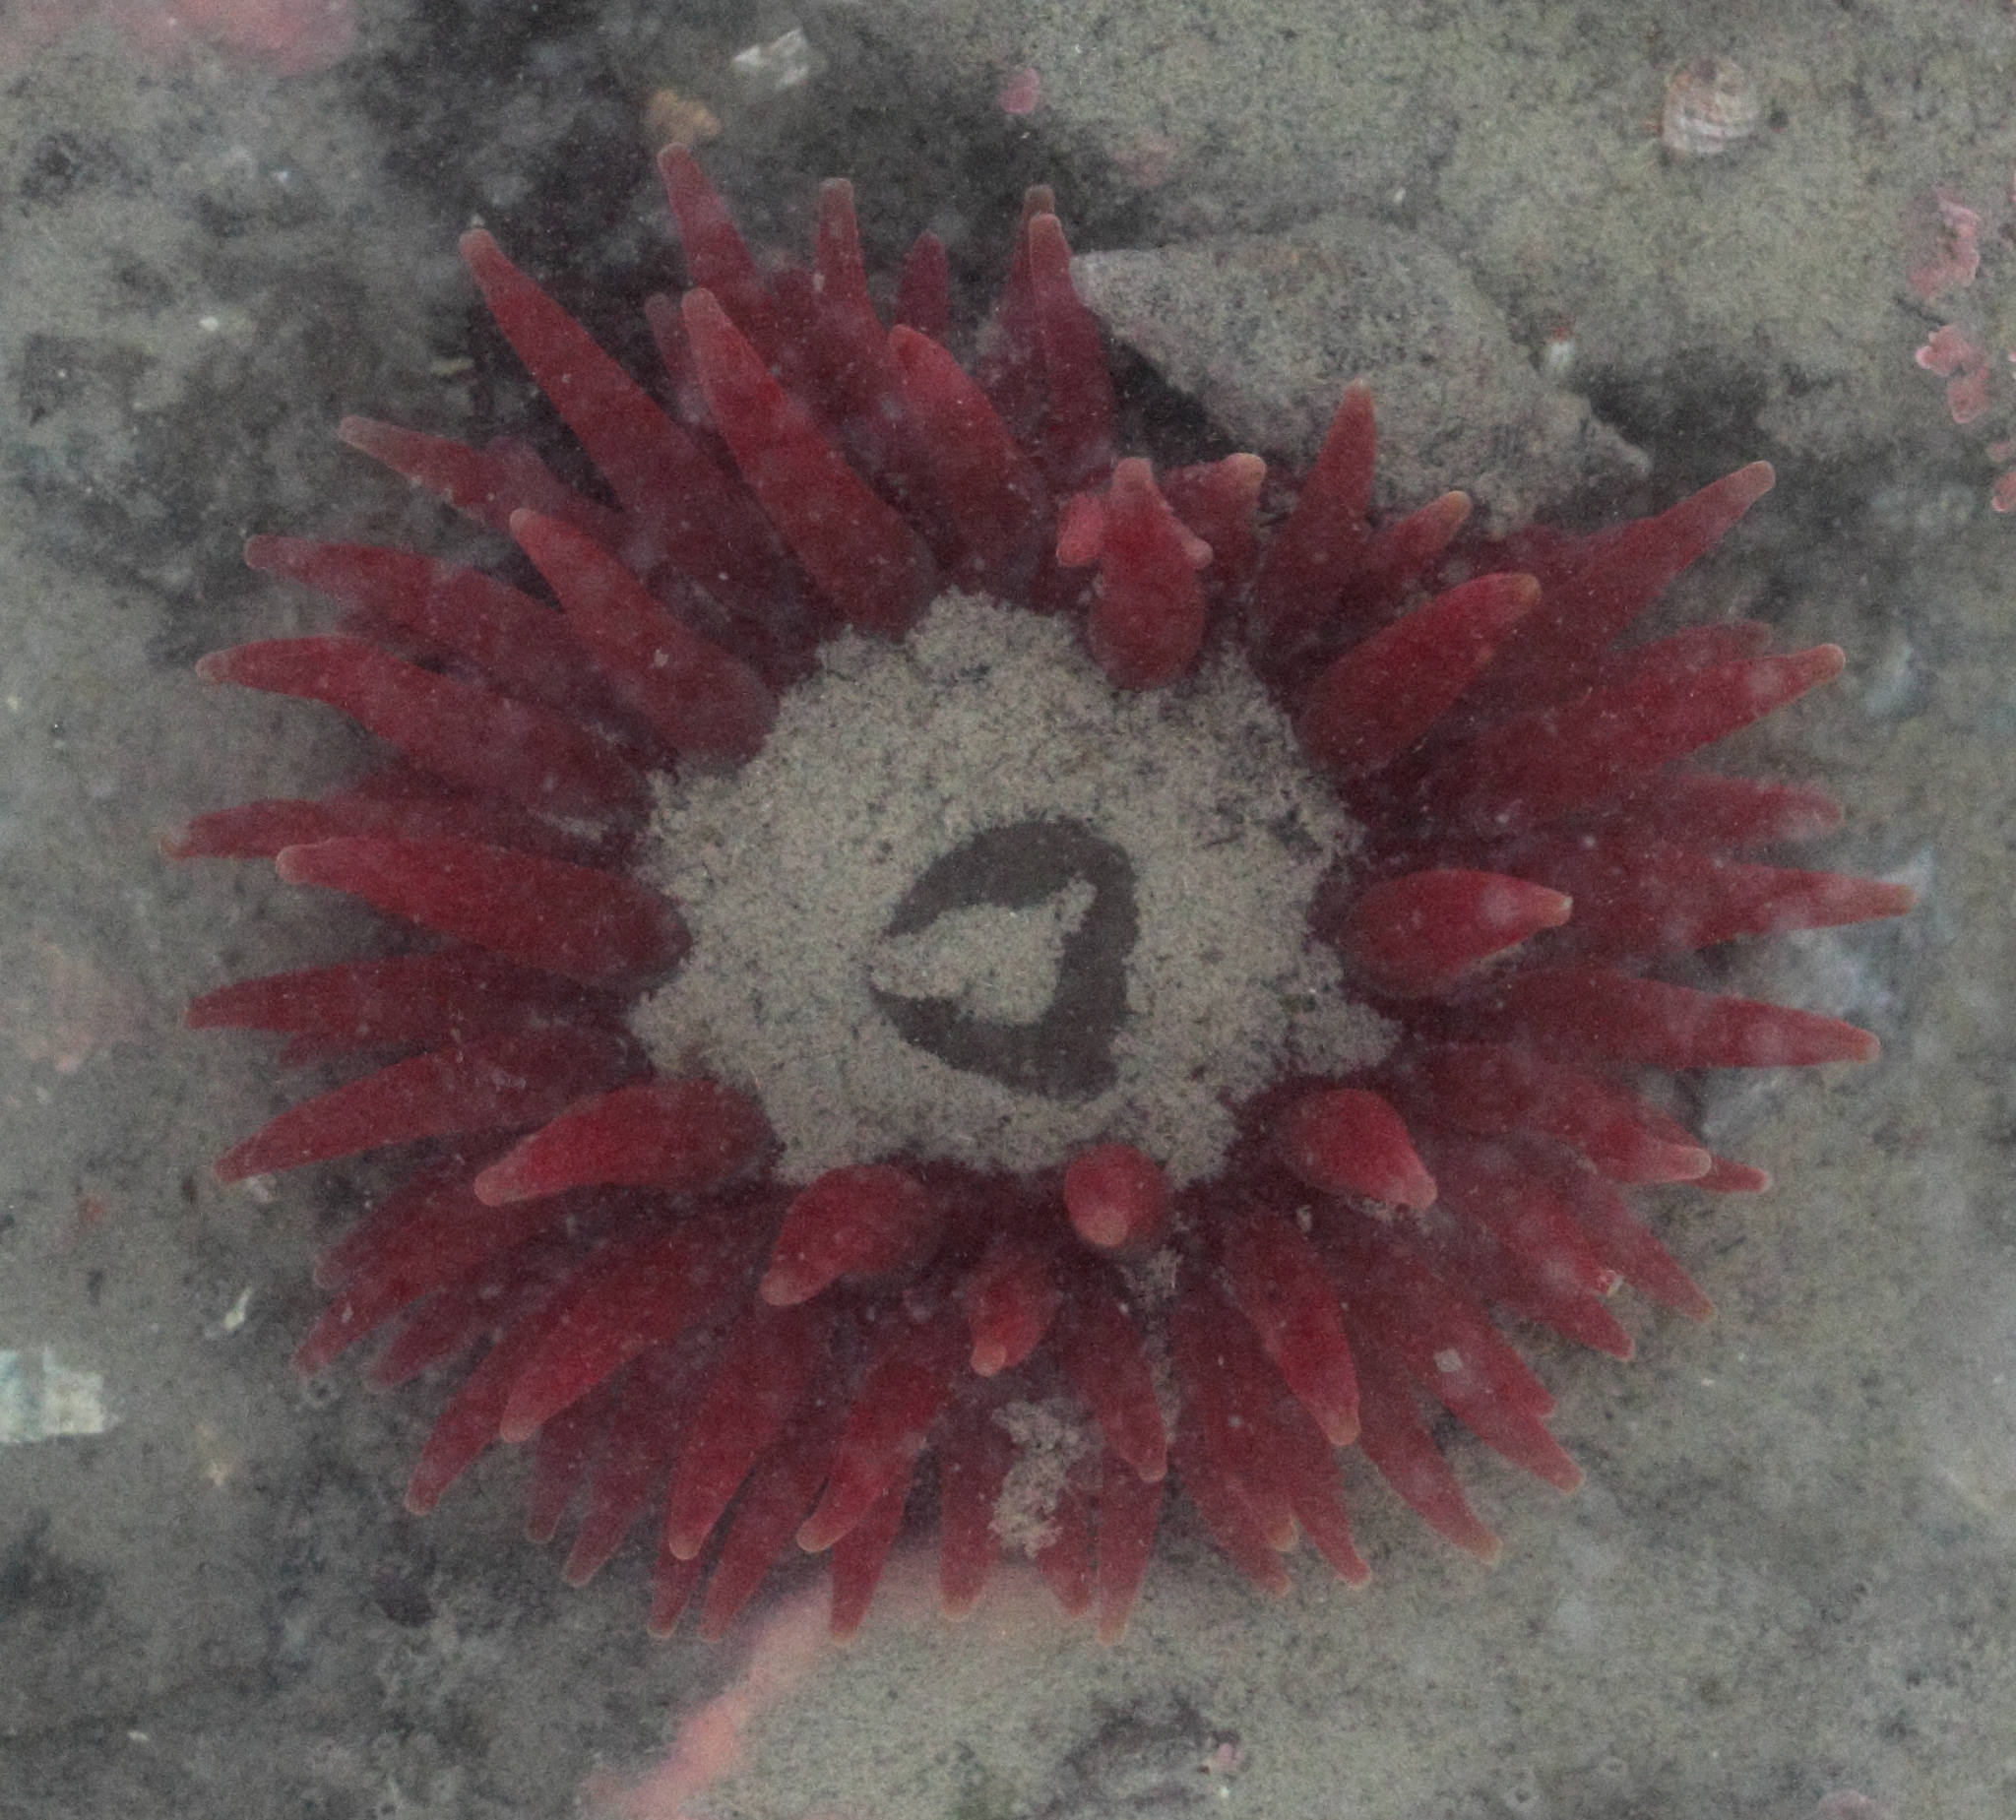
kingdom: Animalia
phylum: Cnidaria
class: Anthozoa
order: Actiniaria
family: Actiniidae
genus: Cribrinopsis
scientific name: Cribrinopsis albopunctata
